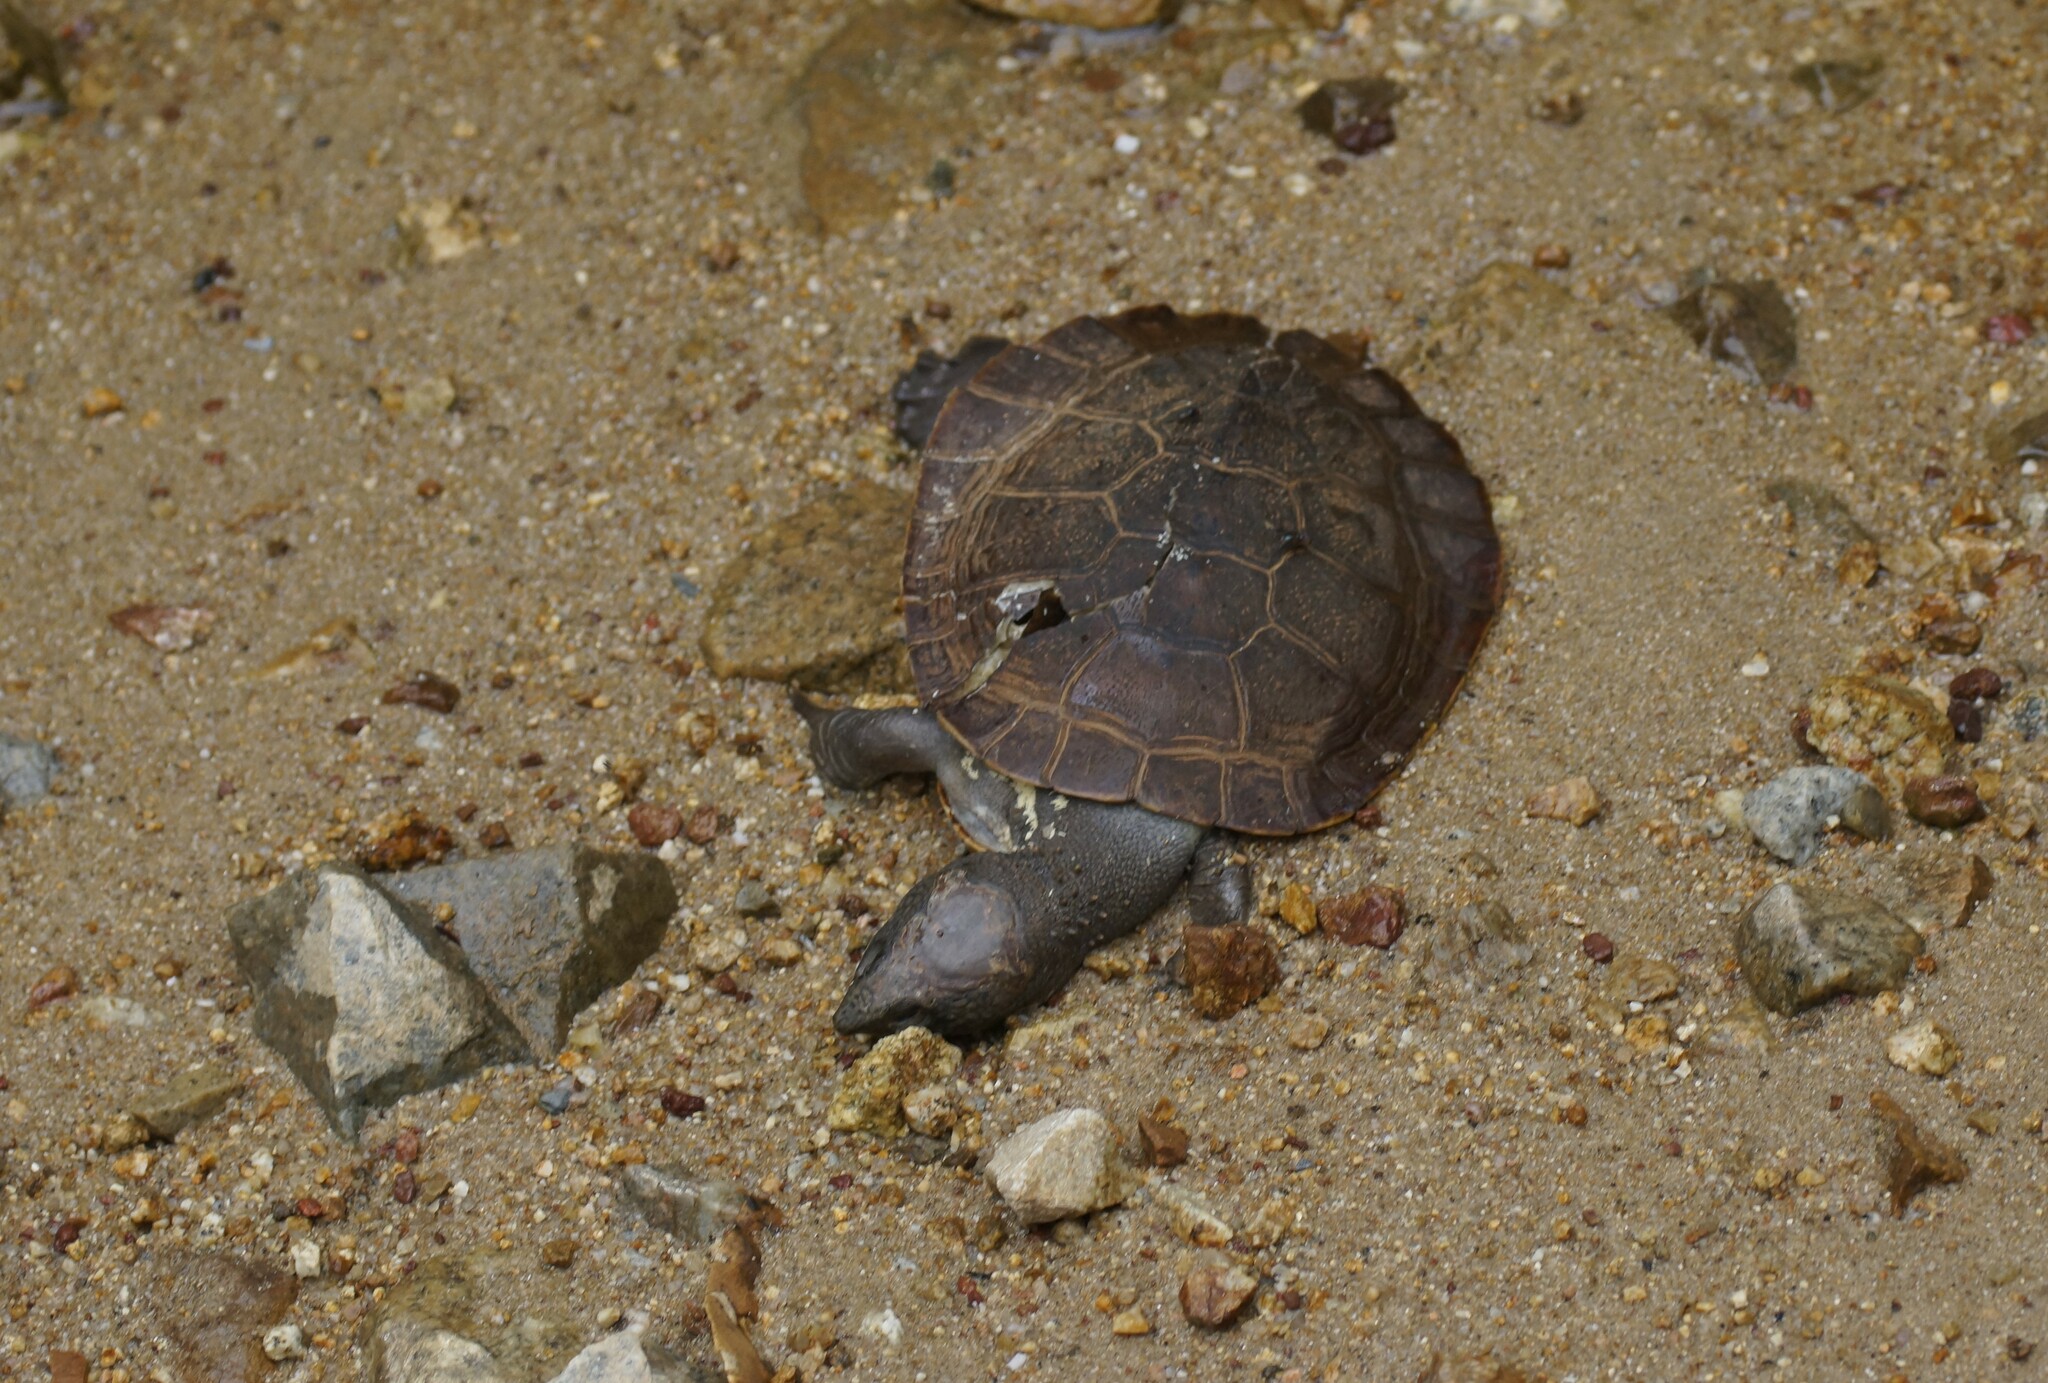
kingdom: Animalia
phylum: Chordata
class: Testudines
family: Chelidae
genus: Myuchelys
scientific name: Myuchelys latisternum
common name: Serrated snapping turtle
